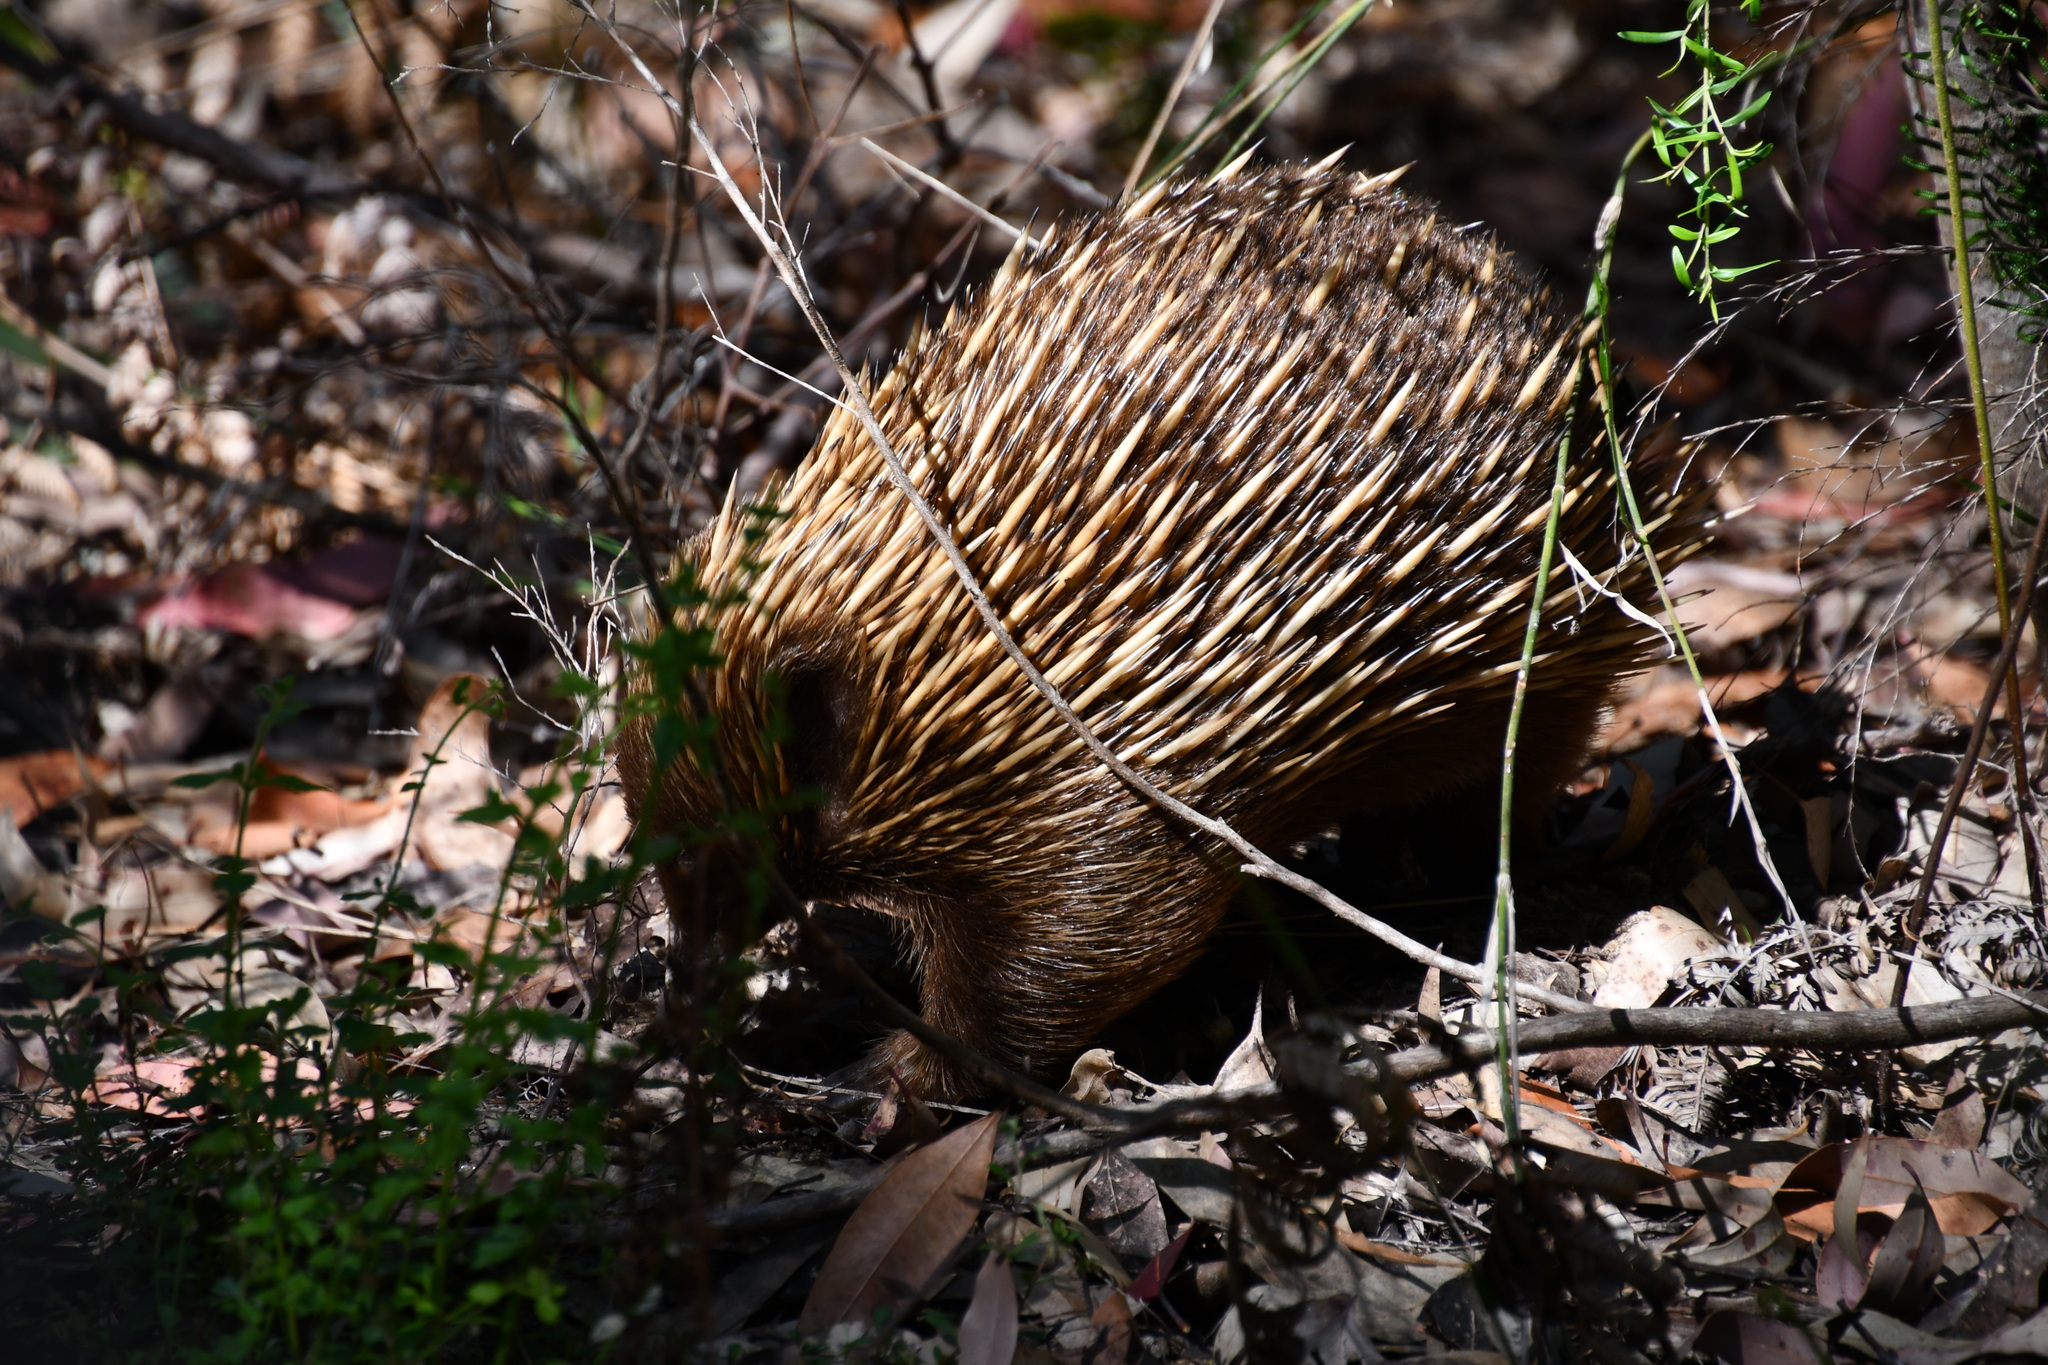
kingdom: Animalia
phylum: Chordata
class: Mammalia
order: Monotremata
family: Tachyglossidae
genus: Tachyglossus
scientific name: Tachyglossus aculeatus
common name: Short-beaked echidna
